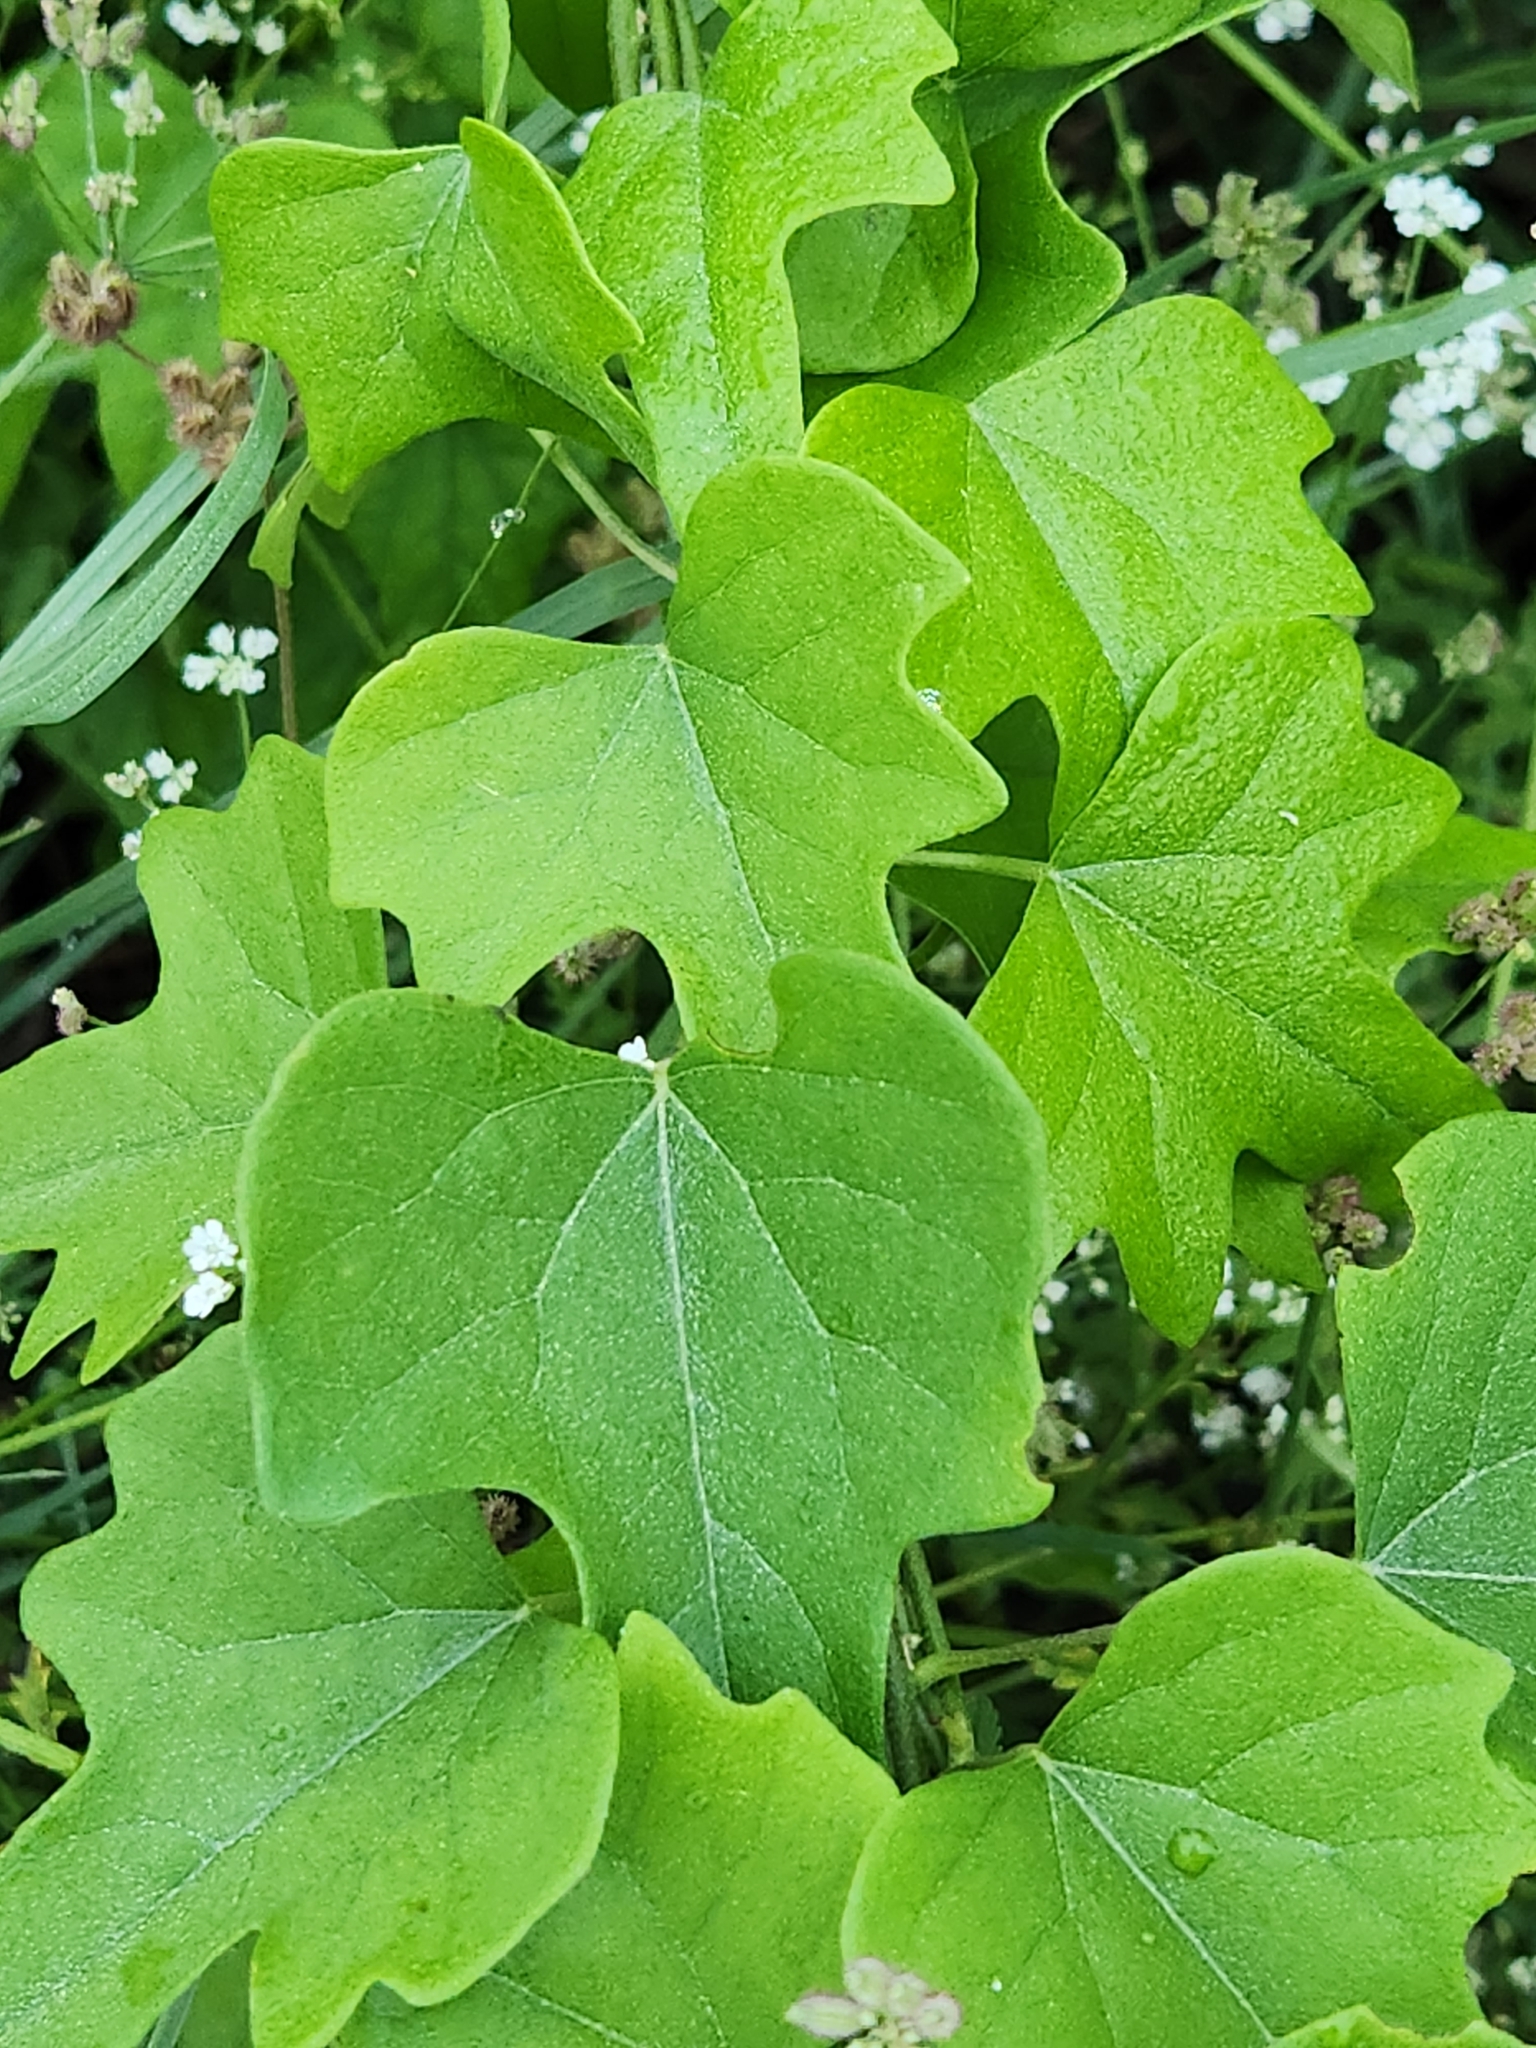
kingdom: Plantae
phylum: Tracheophyta
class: Magnoliopsida
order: Ranunculales
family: Menispermaceae
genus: Cocculus
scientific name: Cocculus carolinus
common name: Carolina moonseed
